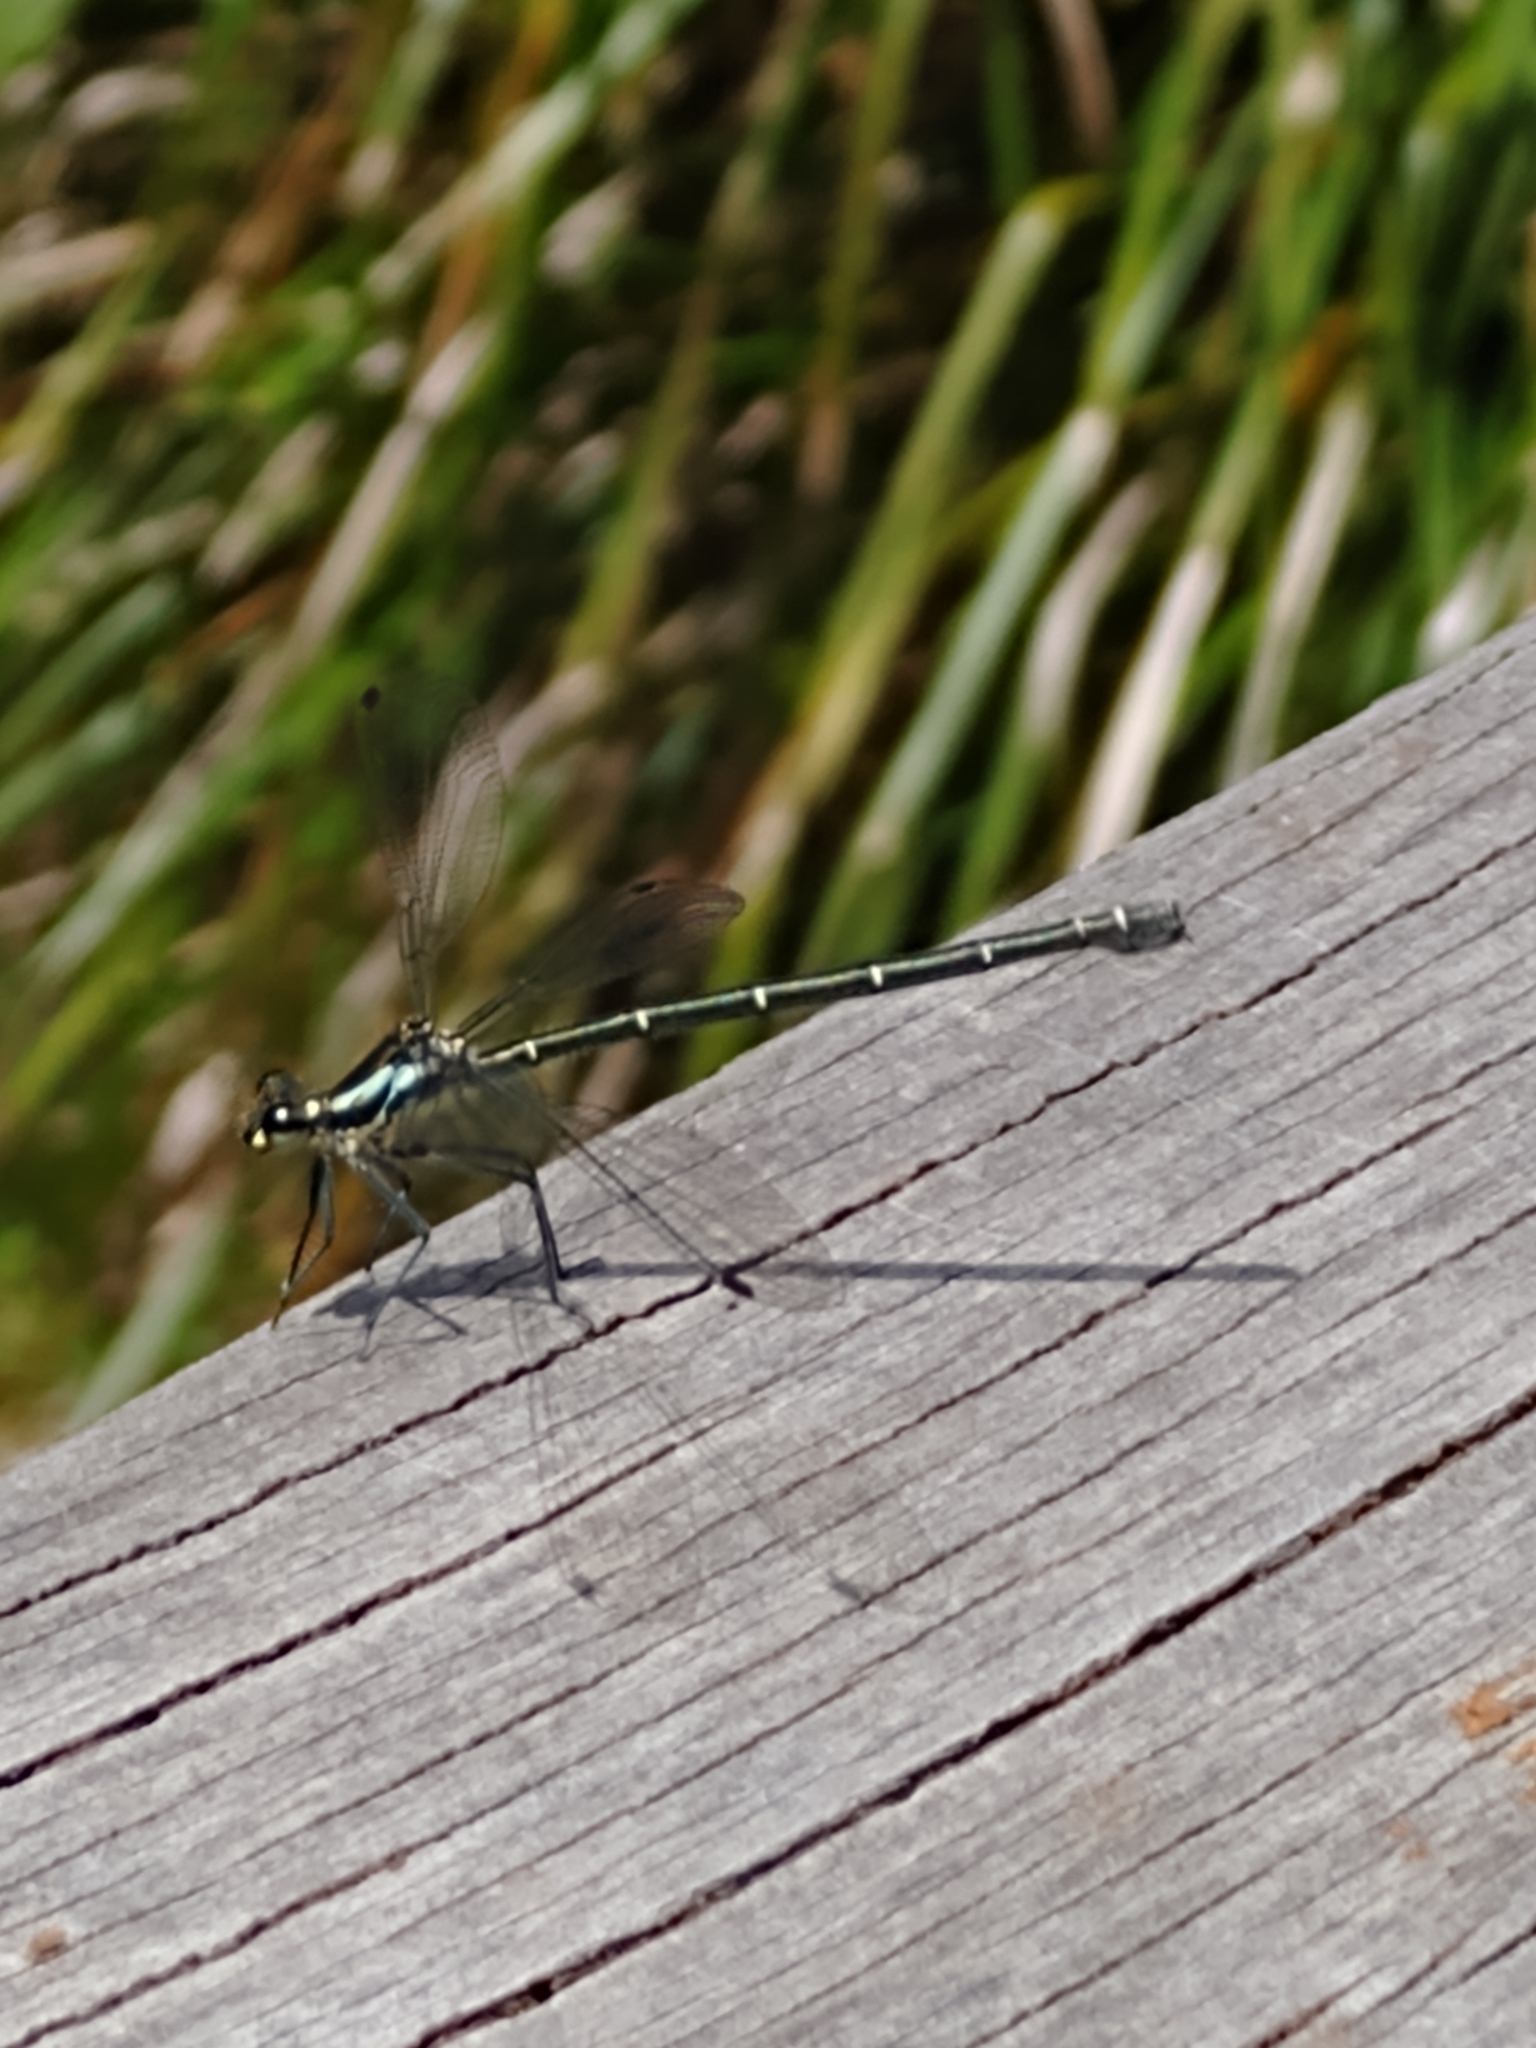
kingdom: Animalia
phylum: Arthropoda
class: Insecta
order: Odonata
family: Argiolestidae
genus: Austroargiolestes
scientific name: Austroargiolestes icteromelas
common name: Common flatwing
